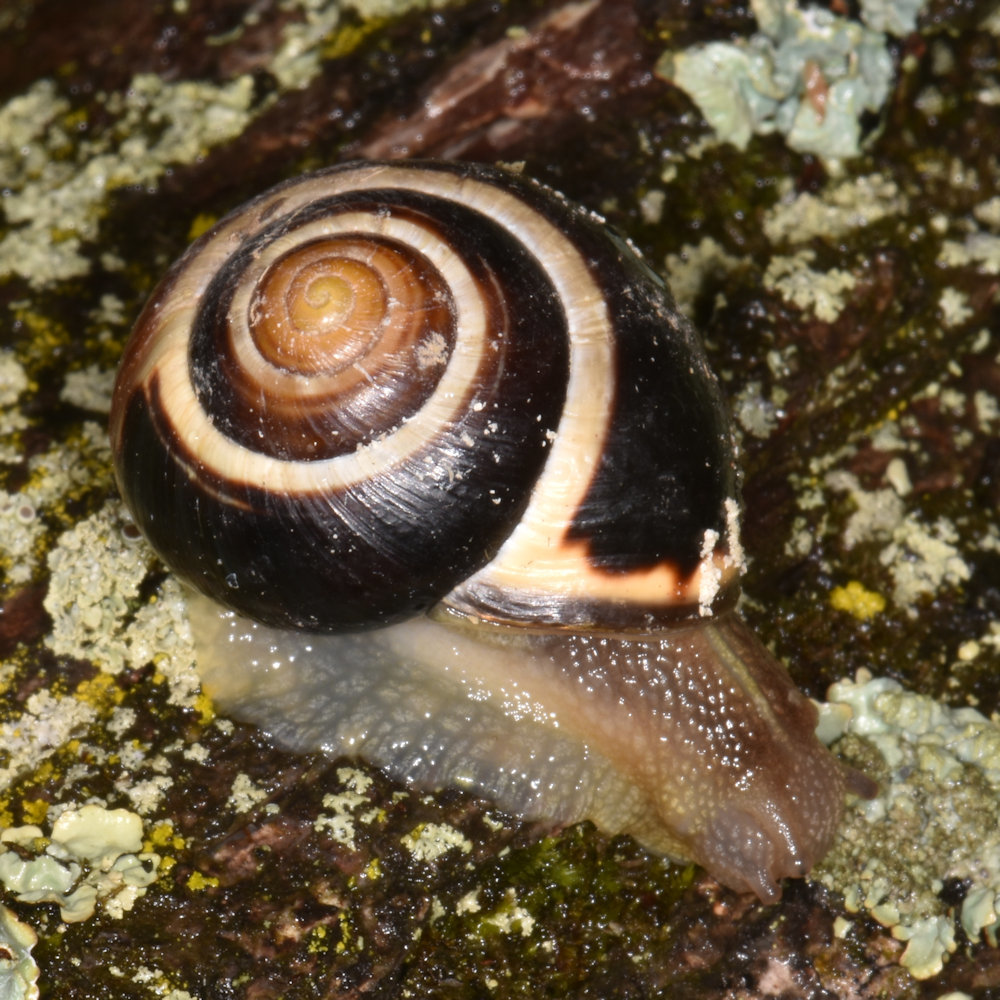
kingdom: Animalia
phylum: Mollusca
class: Gastropoda
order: Stylommatophora
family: Helicidae
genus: Cepaea
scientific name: Cepaea nemoralis
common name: Grovesnail
